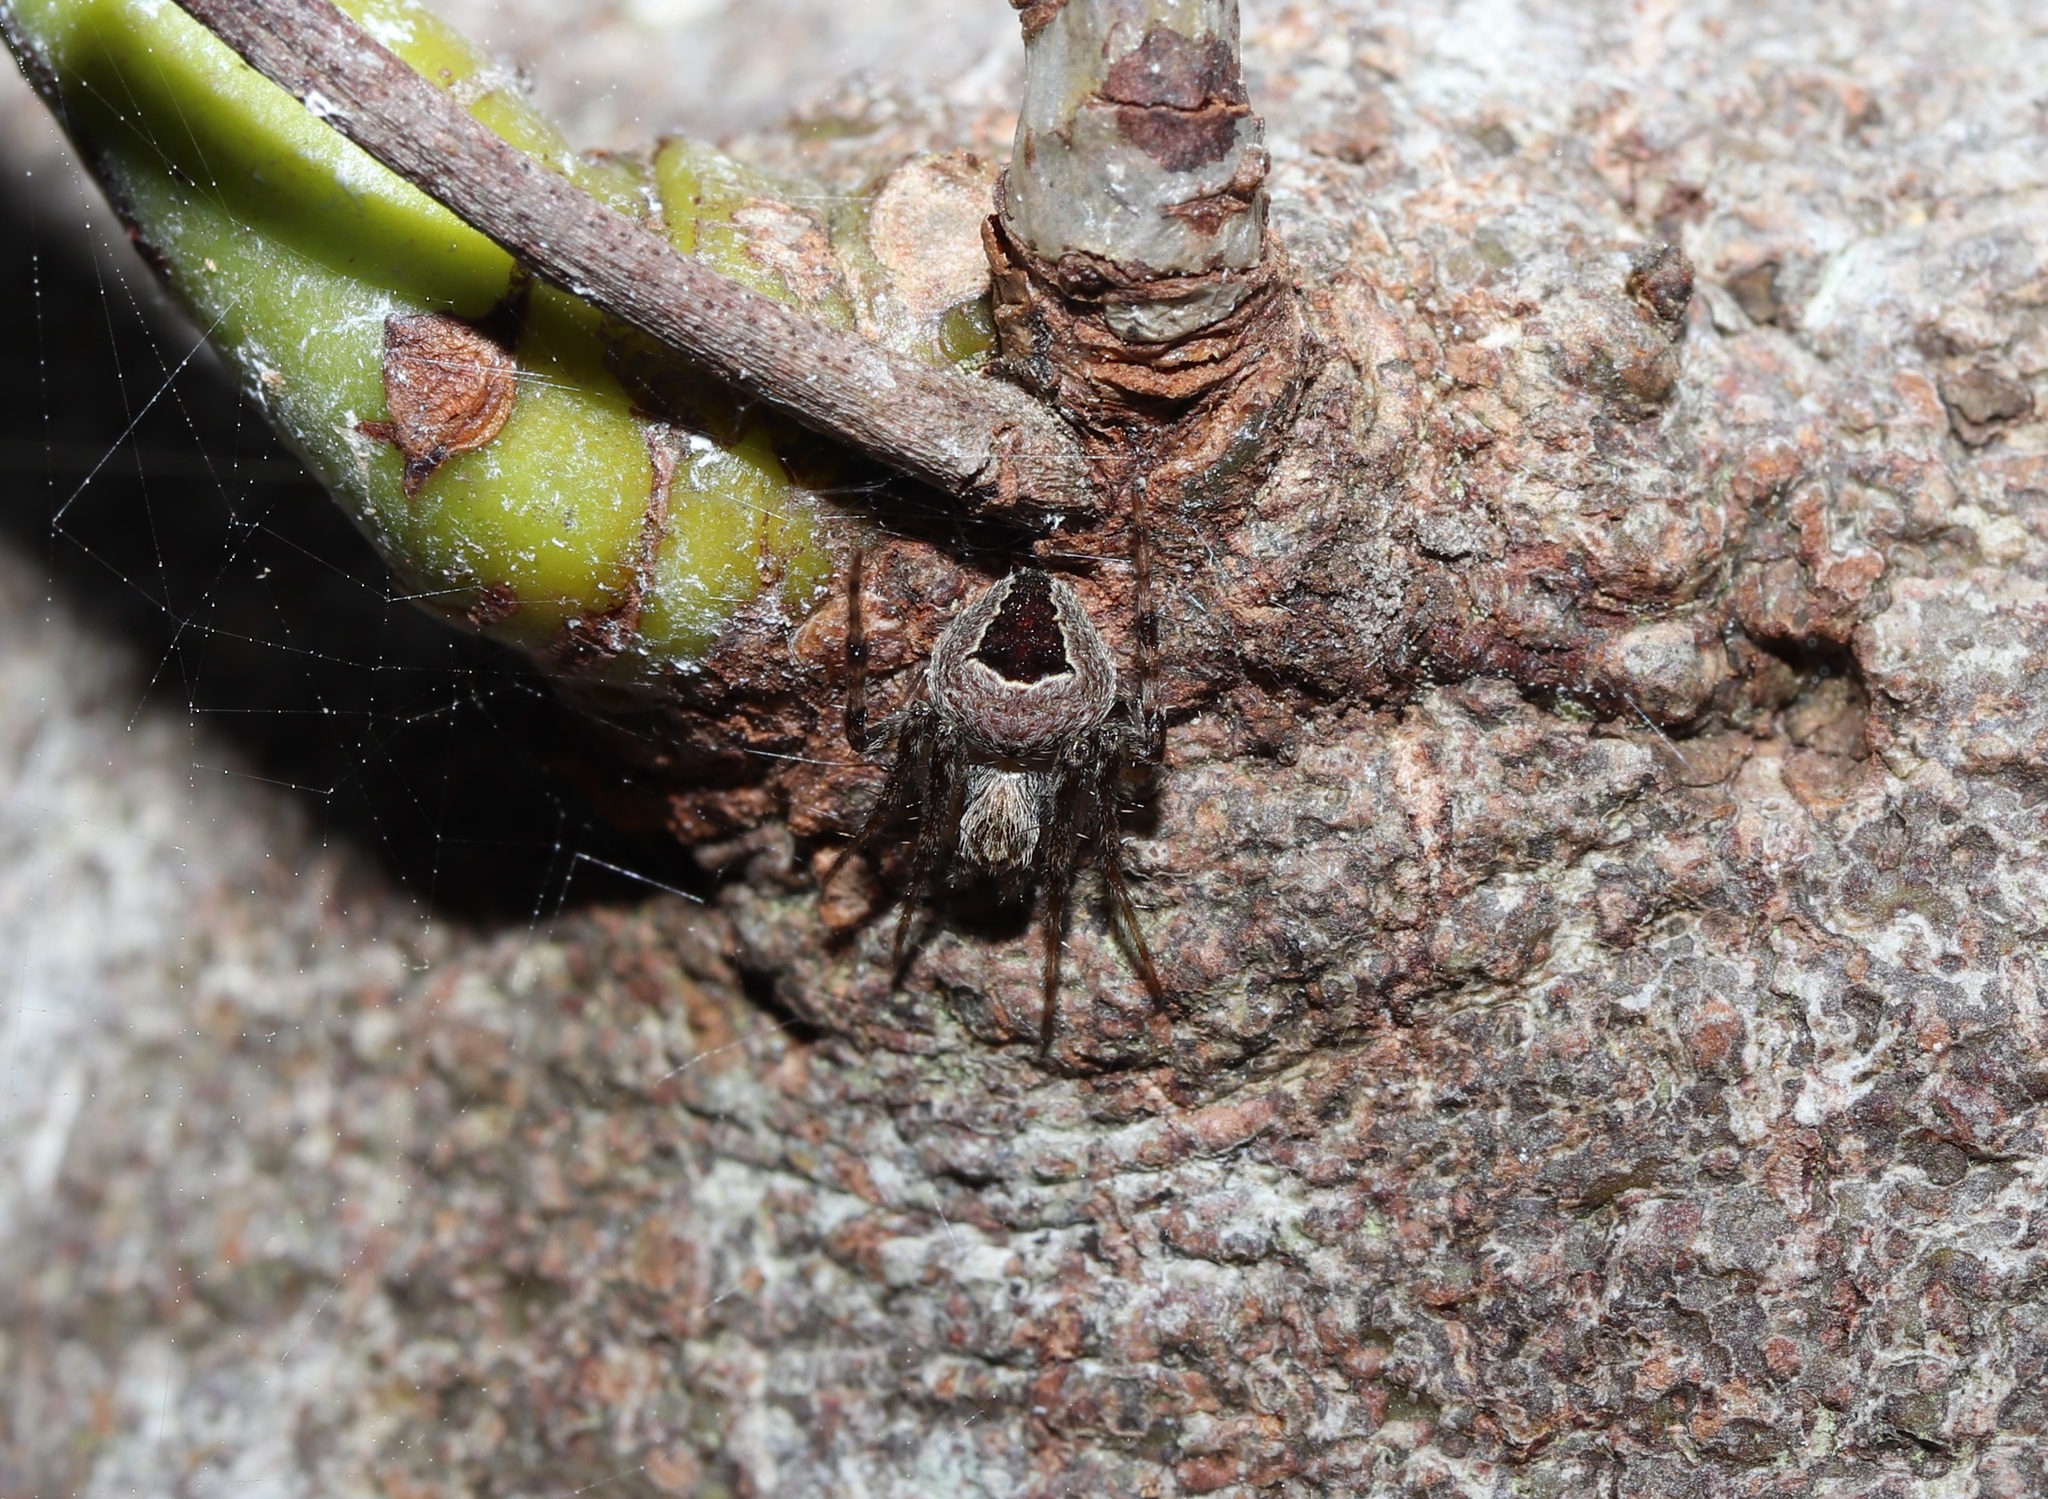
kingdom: Animalia
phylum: Arthropoda
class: Arachnida
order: Araneae
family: Araneidae
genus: Neoscona
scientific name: Neoscona scylla
